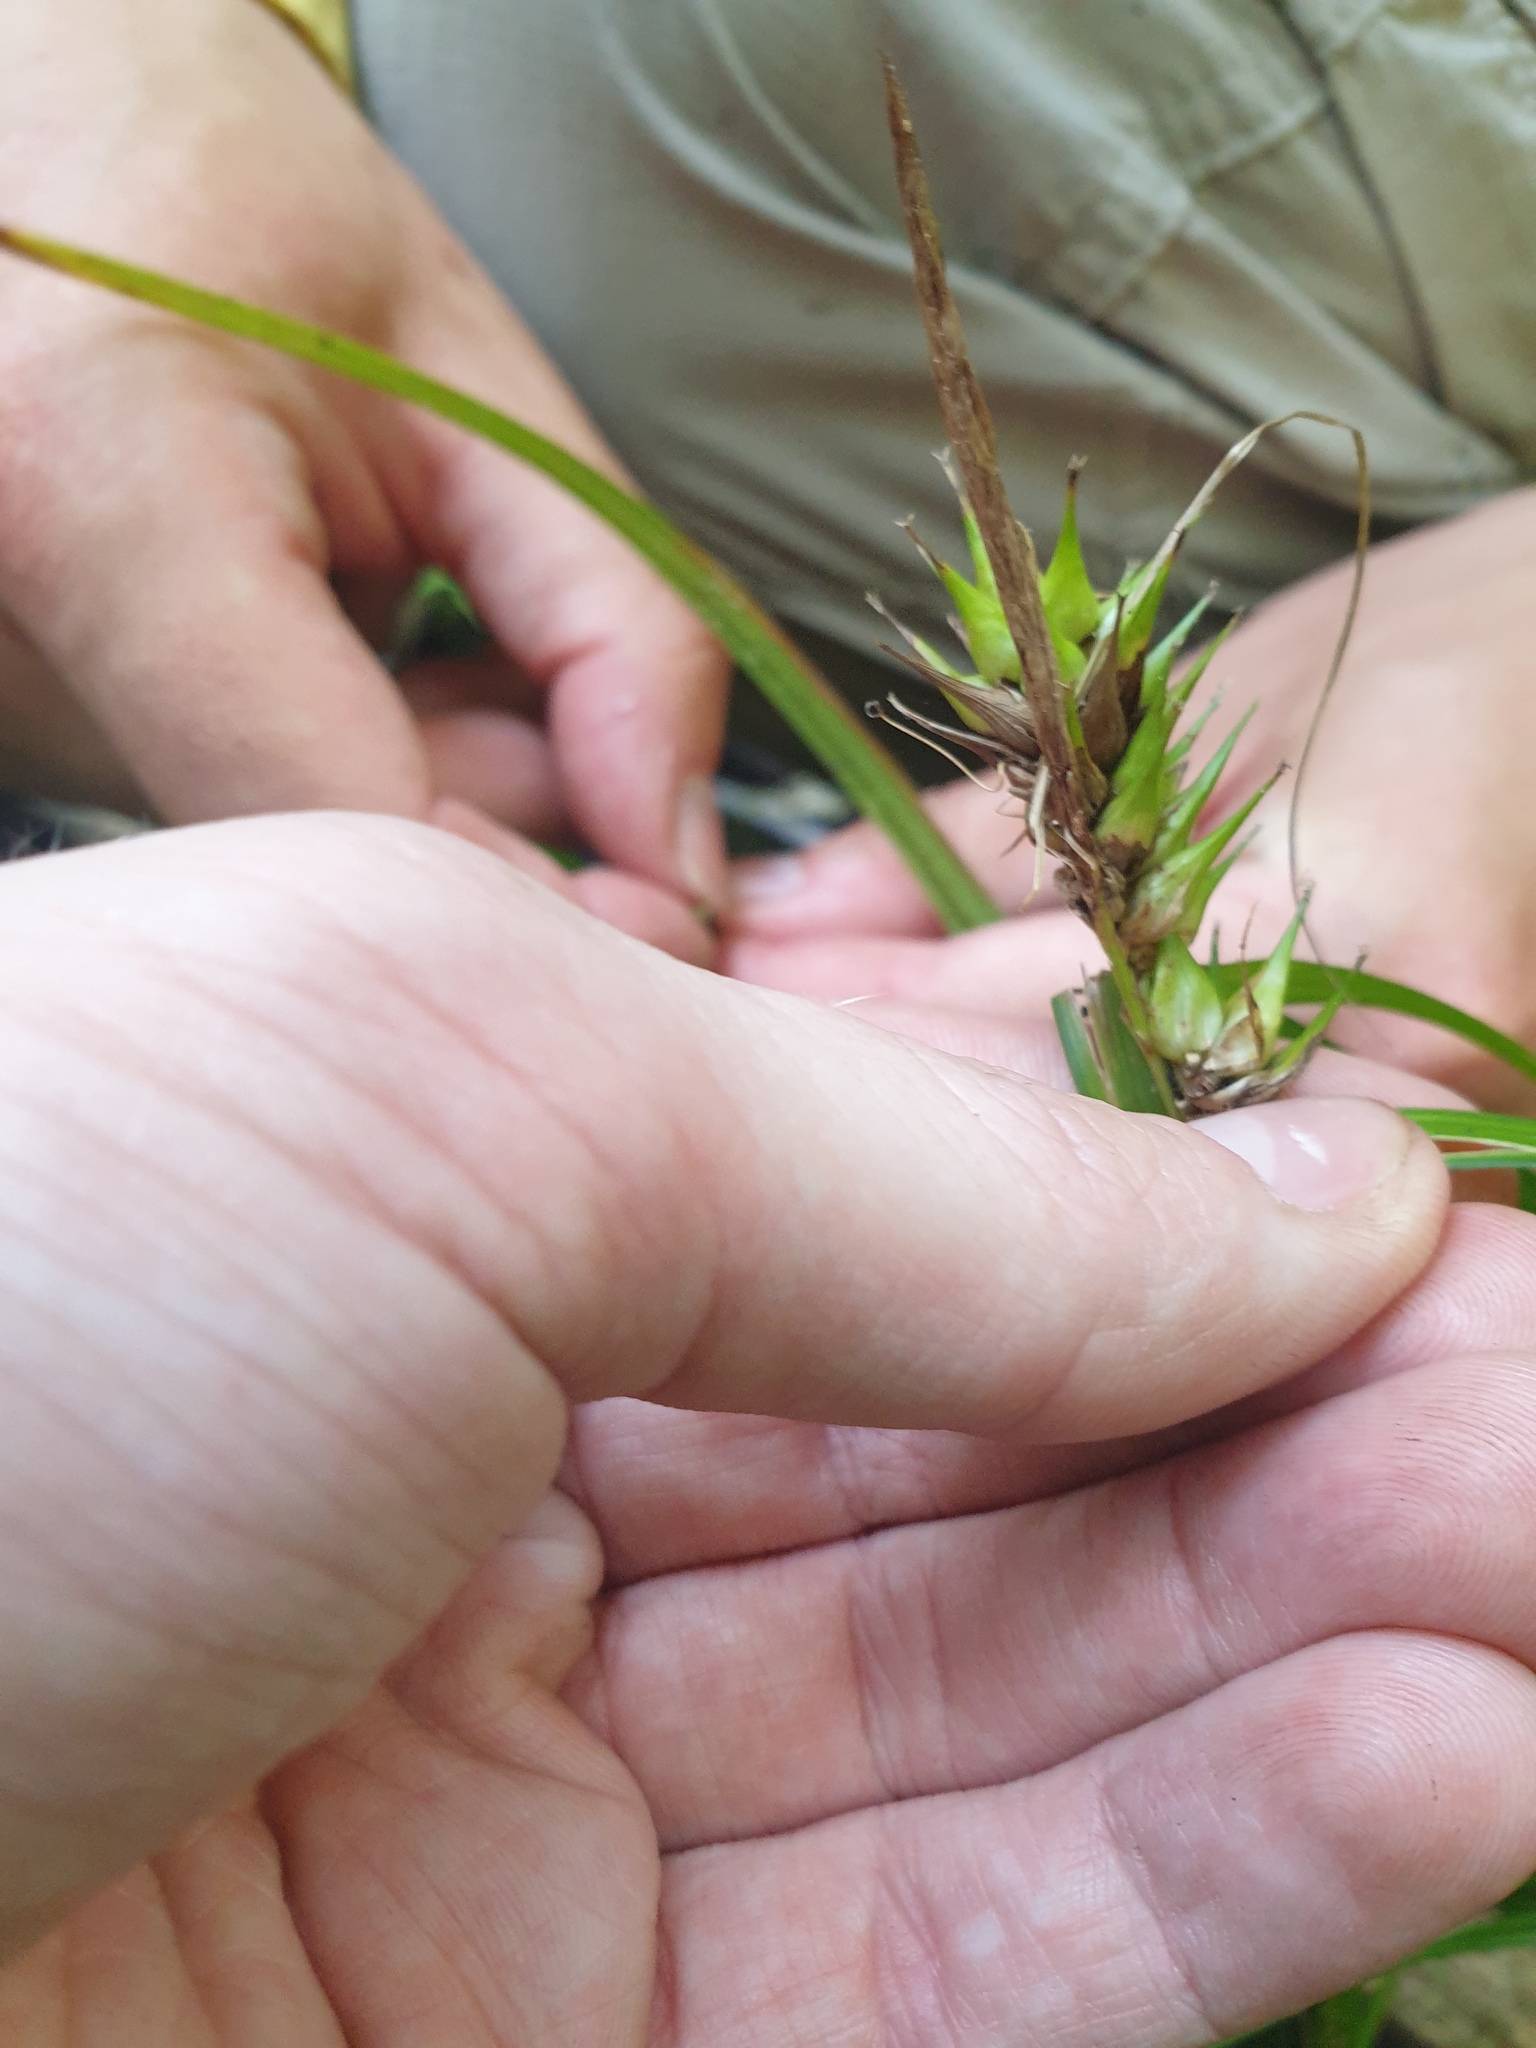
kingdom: Plantae
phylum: Tracheophyta
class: Liliopsida
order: Poales
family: Cyperaceae
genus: Carex
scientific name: Carex lupulina
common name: Hop sedge
